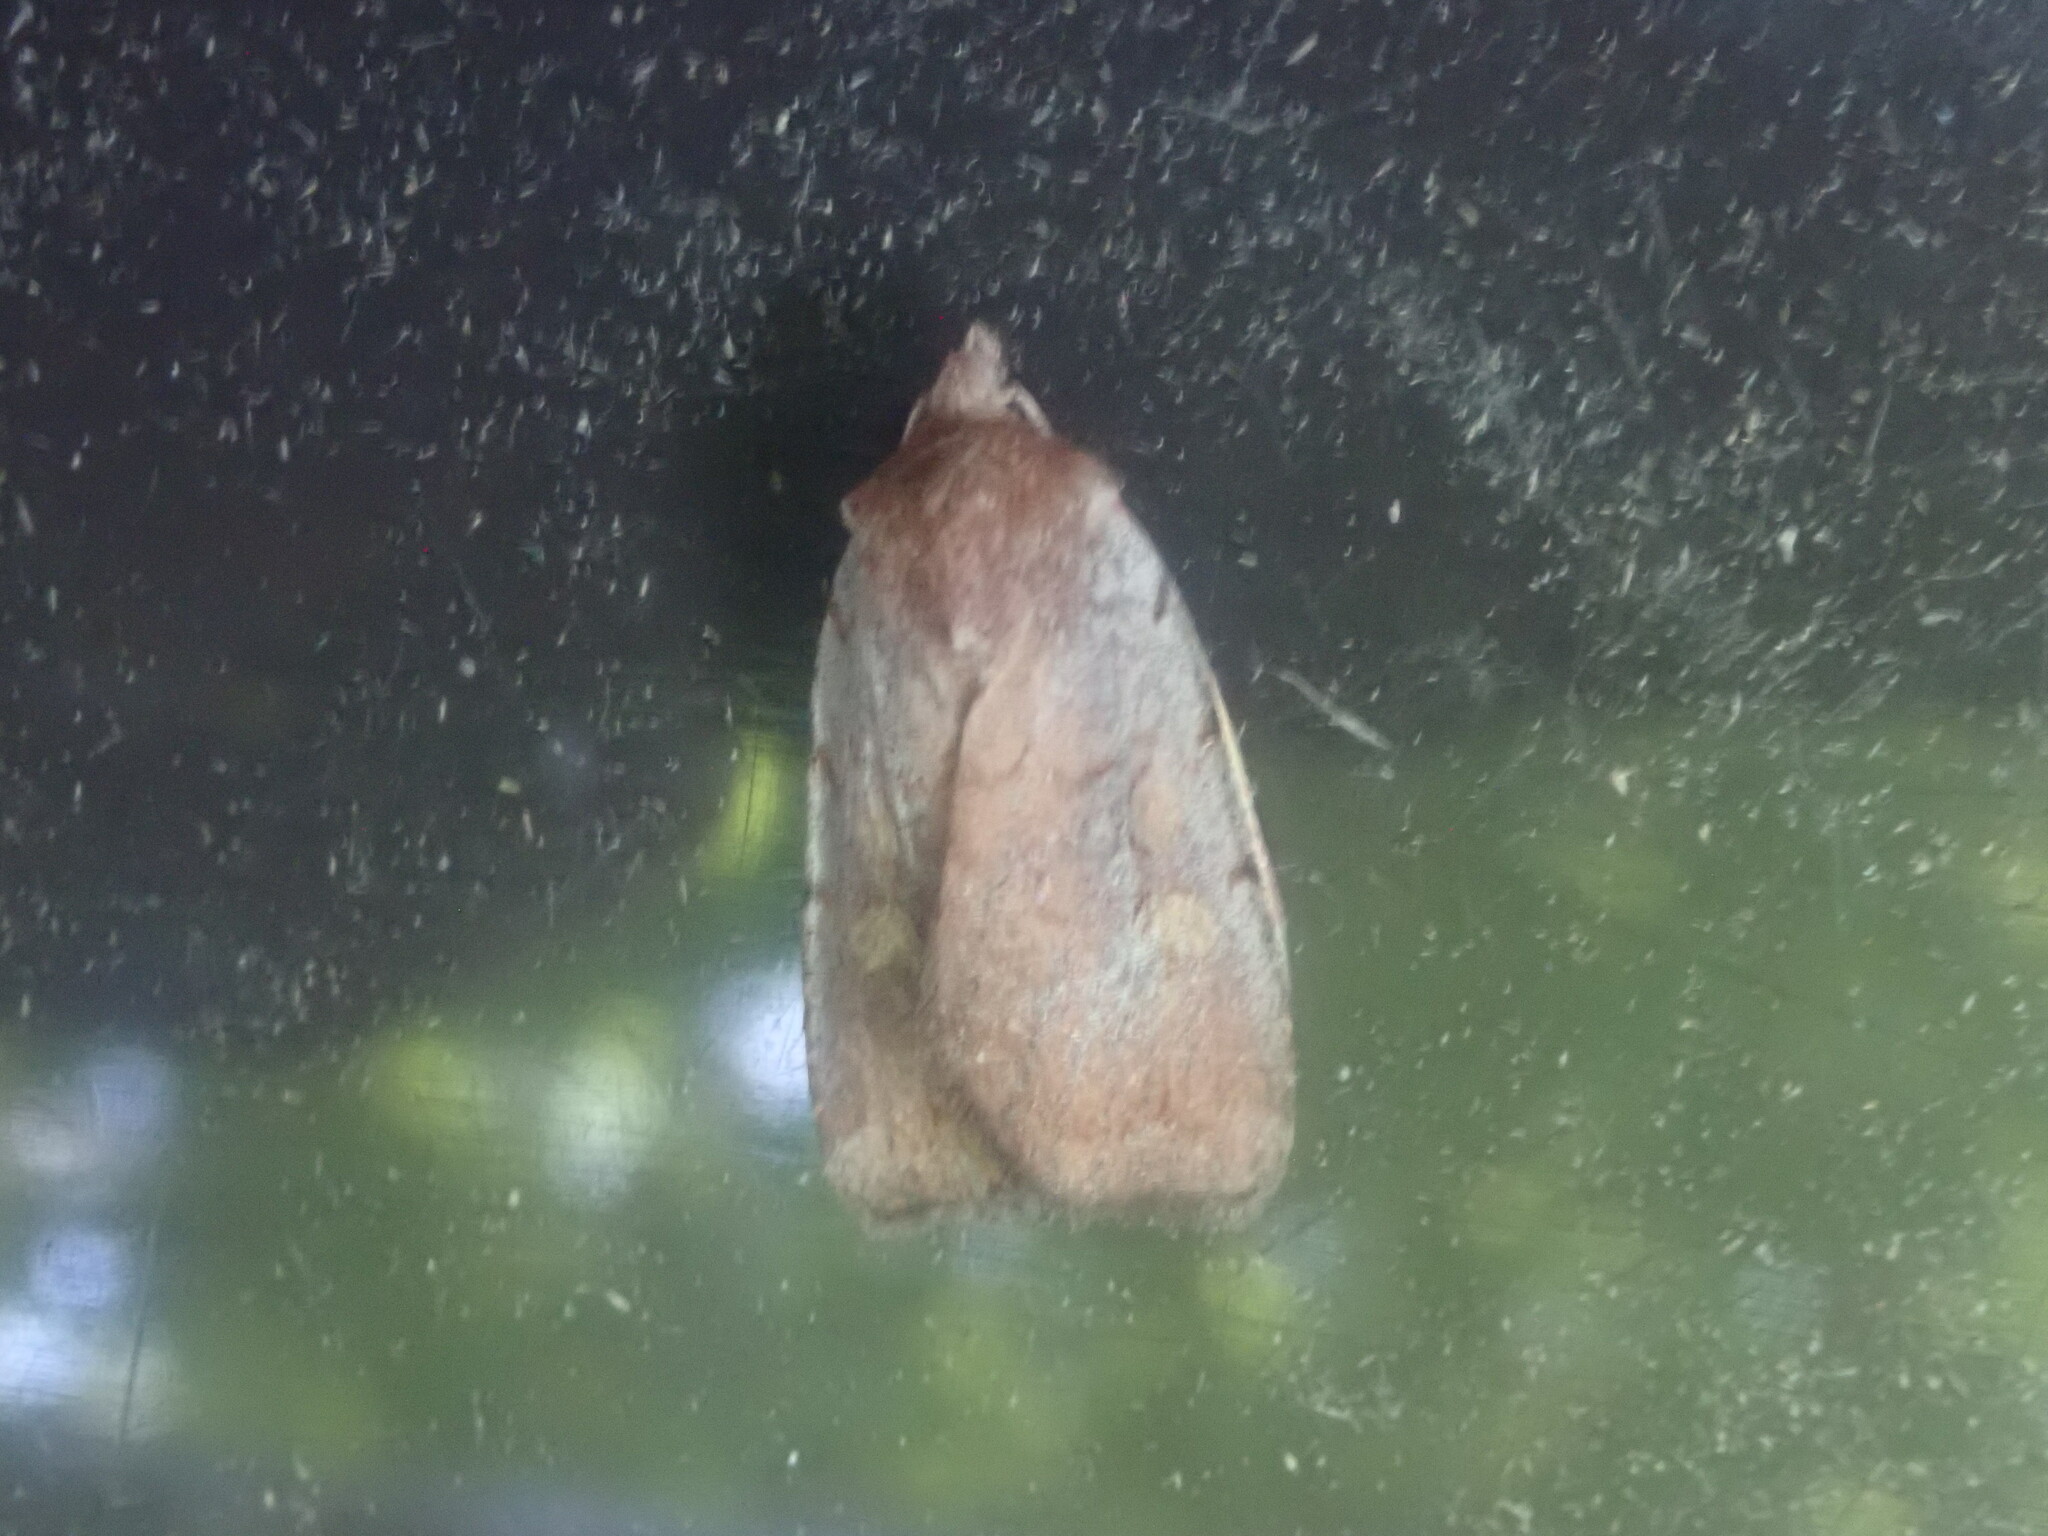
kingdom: Animalia
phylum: Arthropoda
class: Insecta
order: Lepidoptera
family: Noctuidae
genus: Xestia
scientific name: Xestia dilucida
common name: Dull reddish dart
